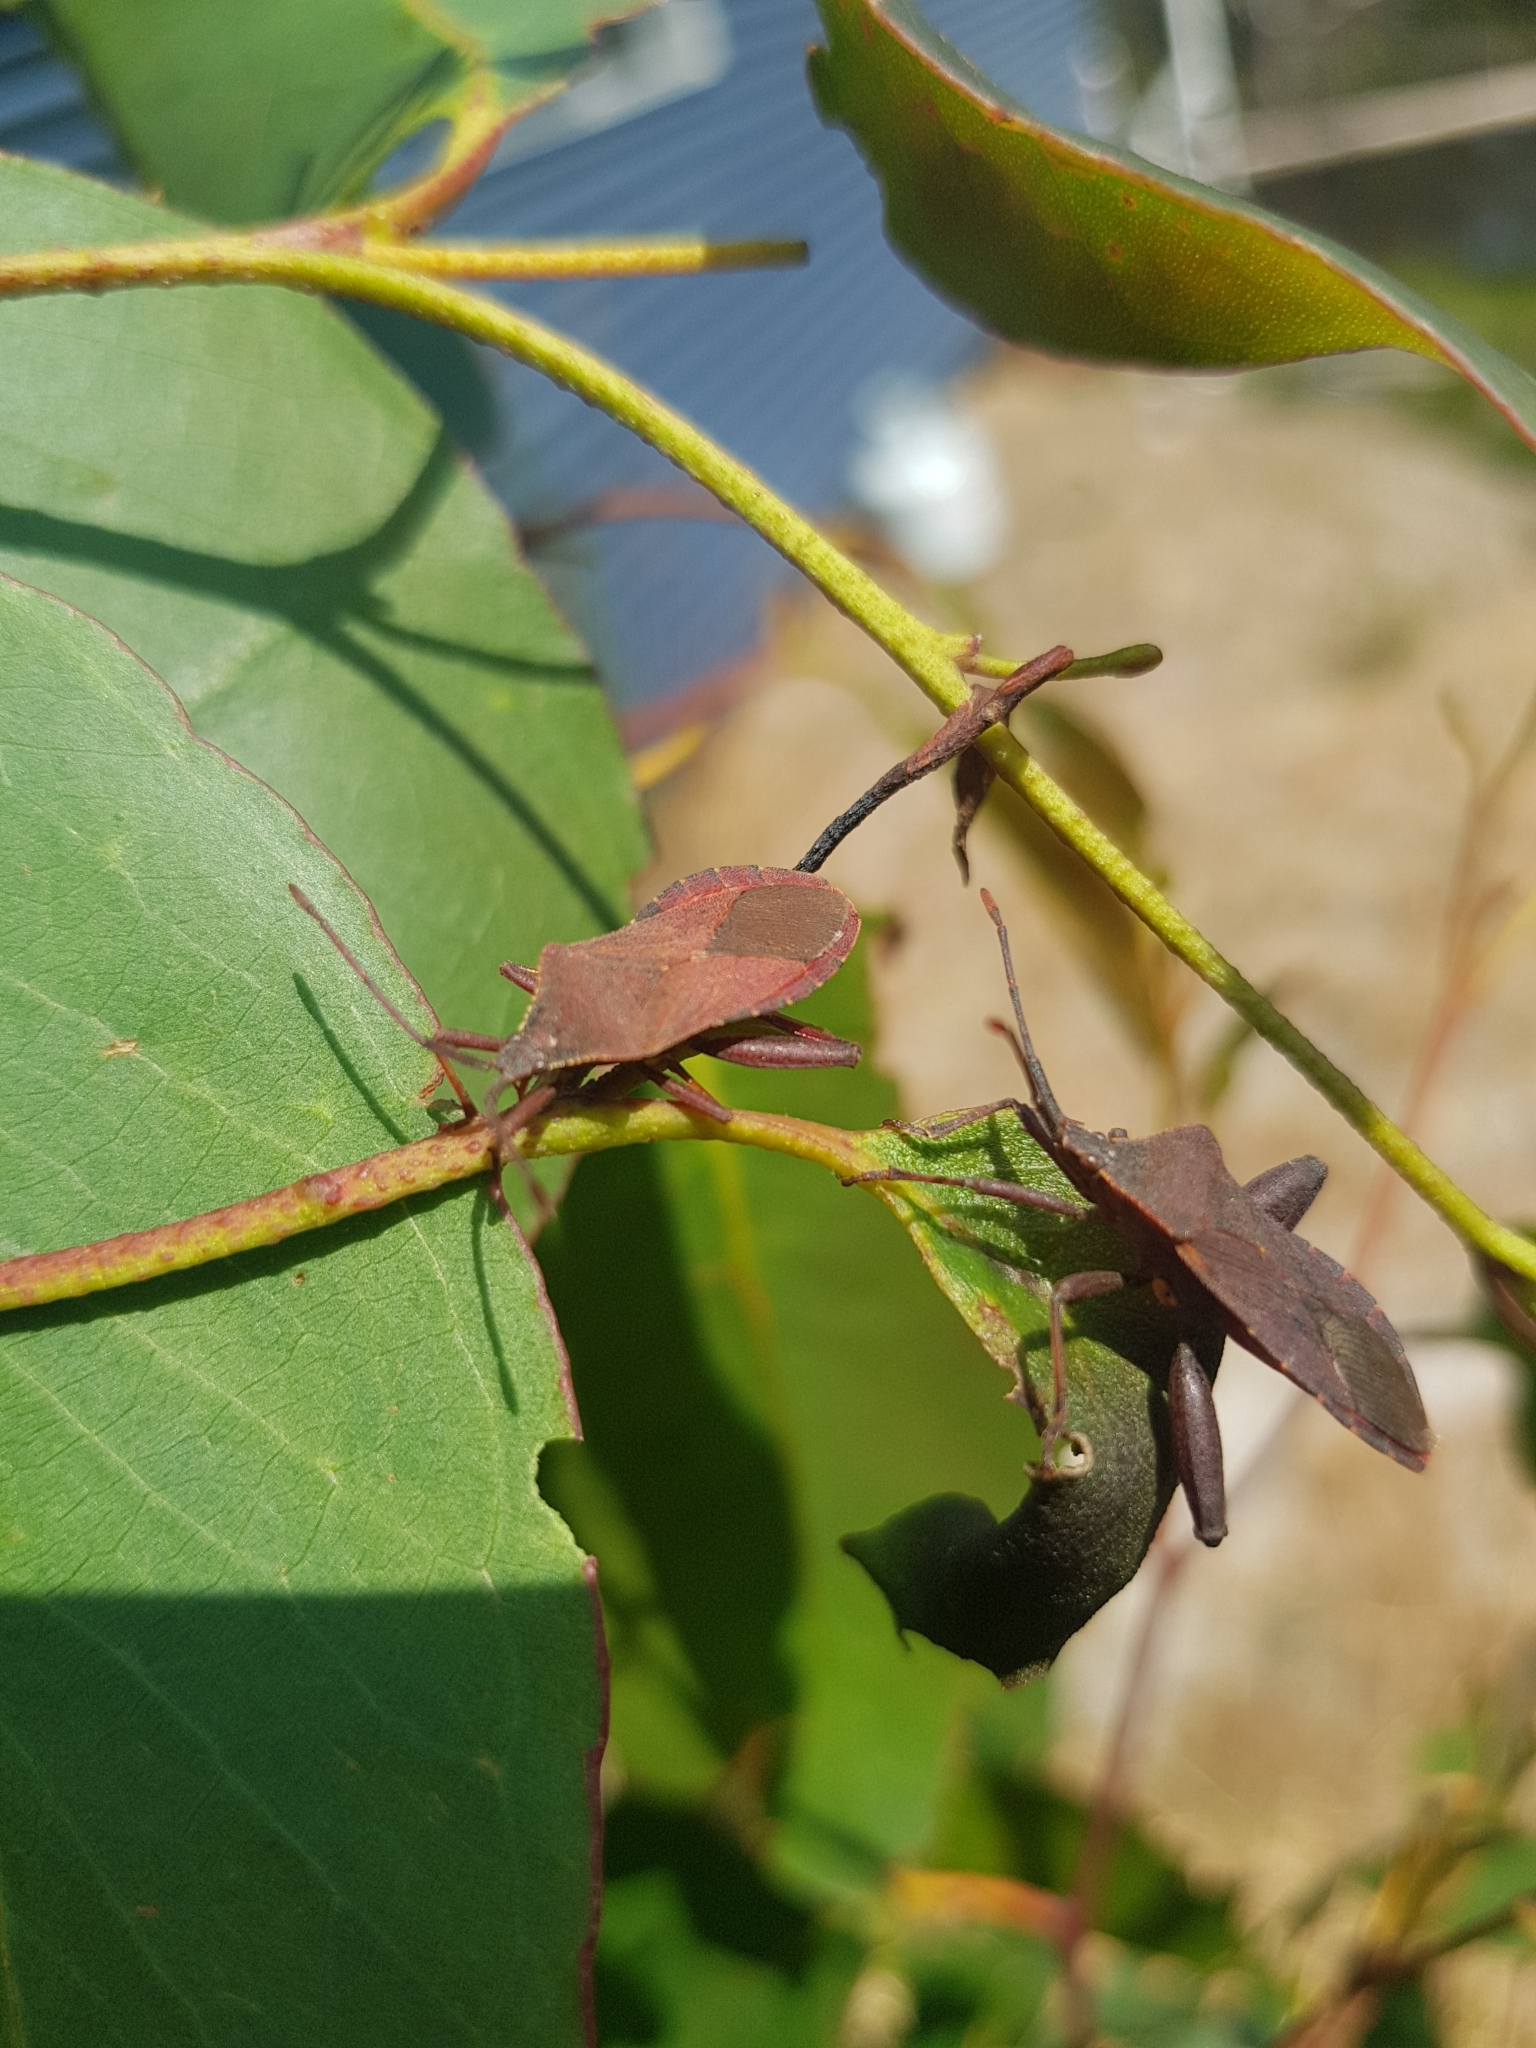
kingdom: Animalia
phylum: Arthropoda
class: Insecta
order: Hemiptera
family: Coreidae
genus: Amorbus
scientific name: Amorbus obscuricornis
